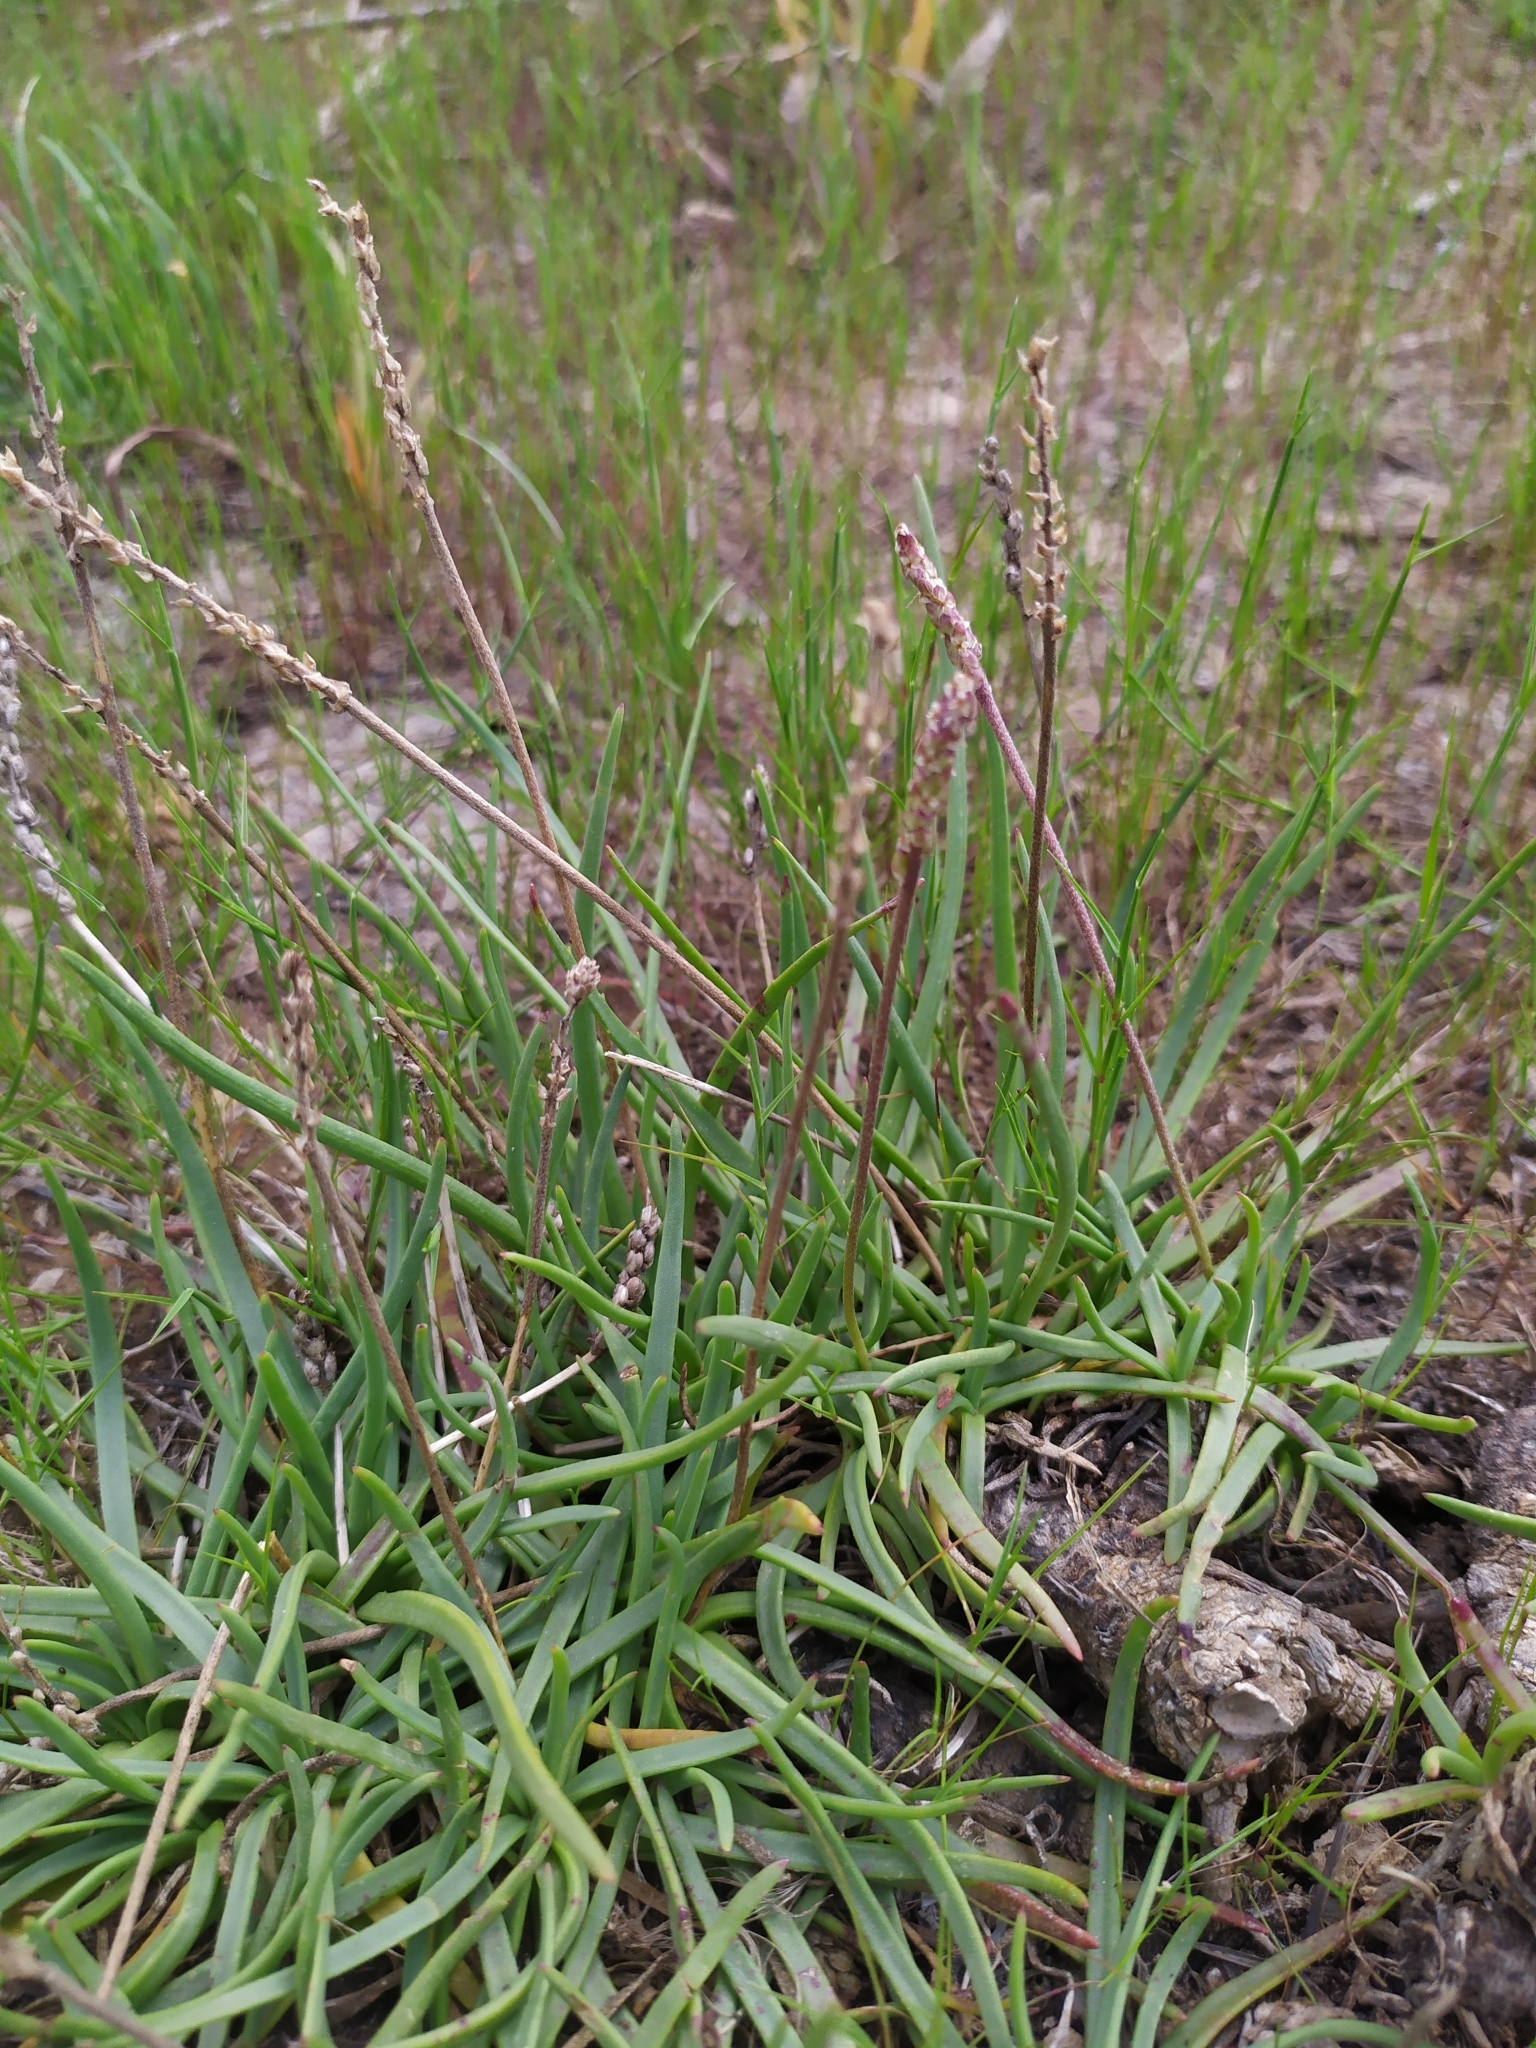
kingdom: Plantae
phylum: Tracheophyta
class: Magnoliopsida
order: Lamiales
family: Plantaginaceae
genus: Plantago
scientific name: Plantago crassifolia
